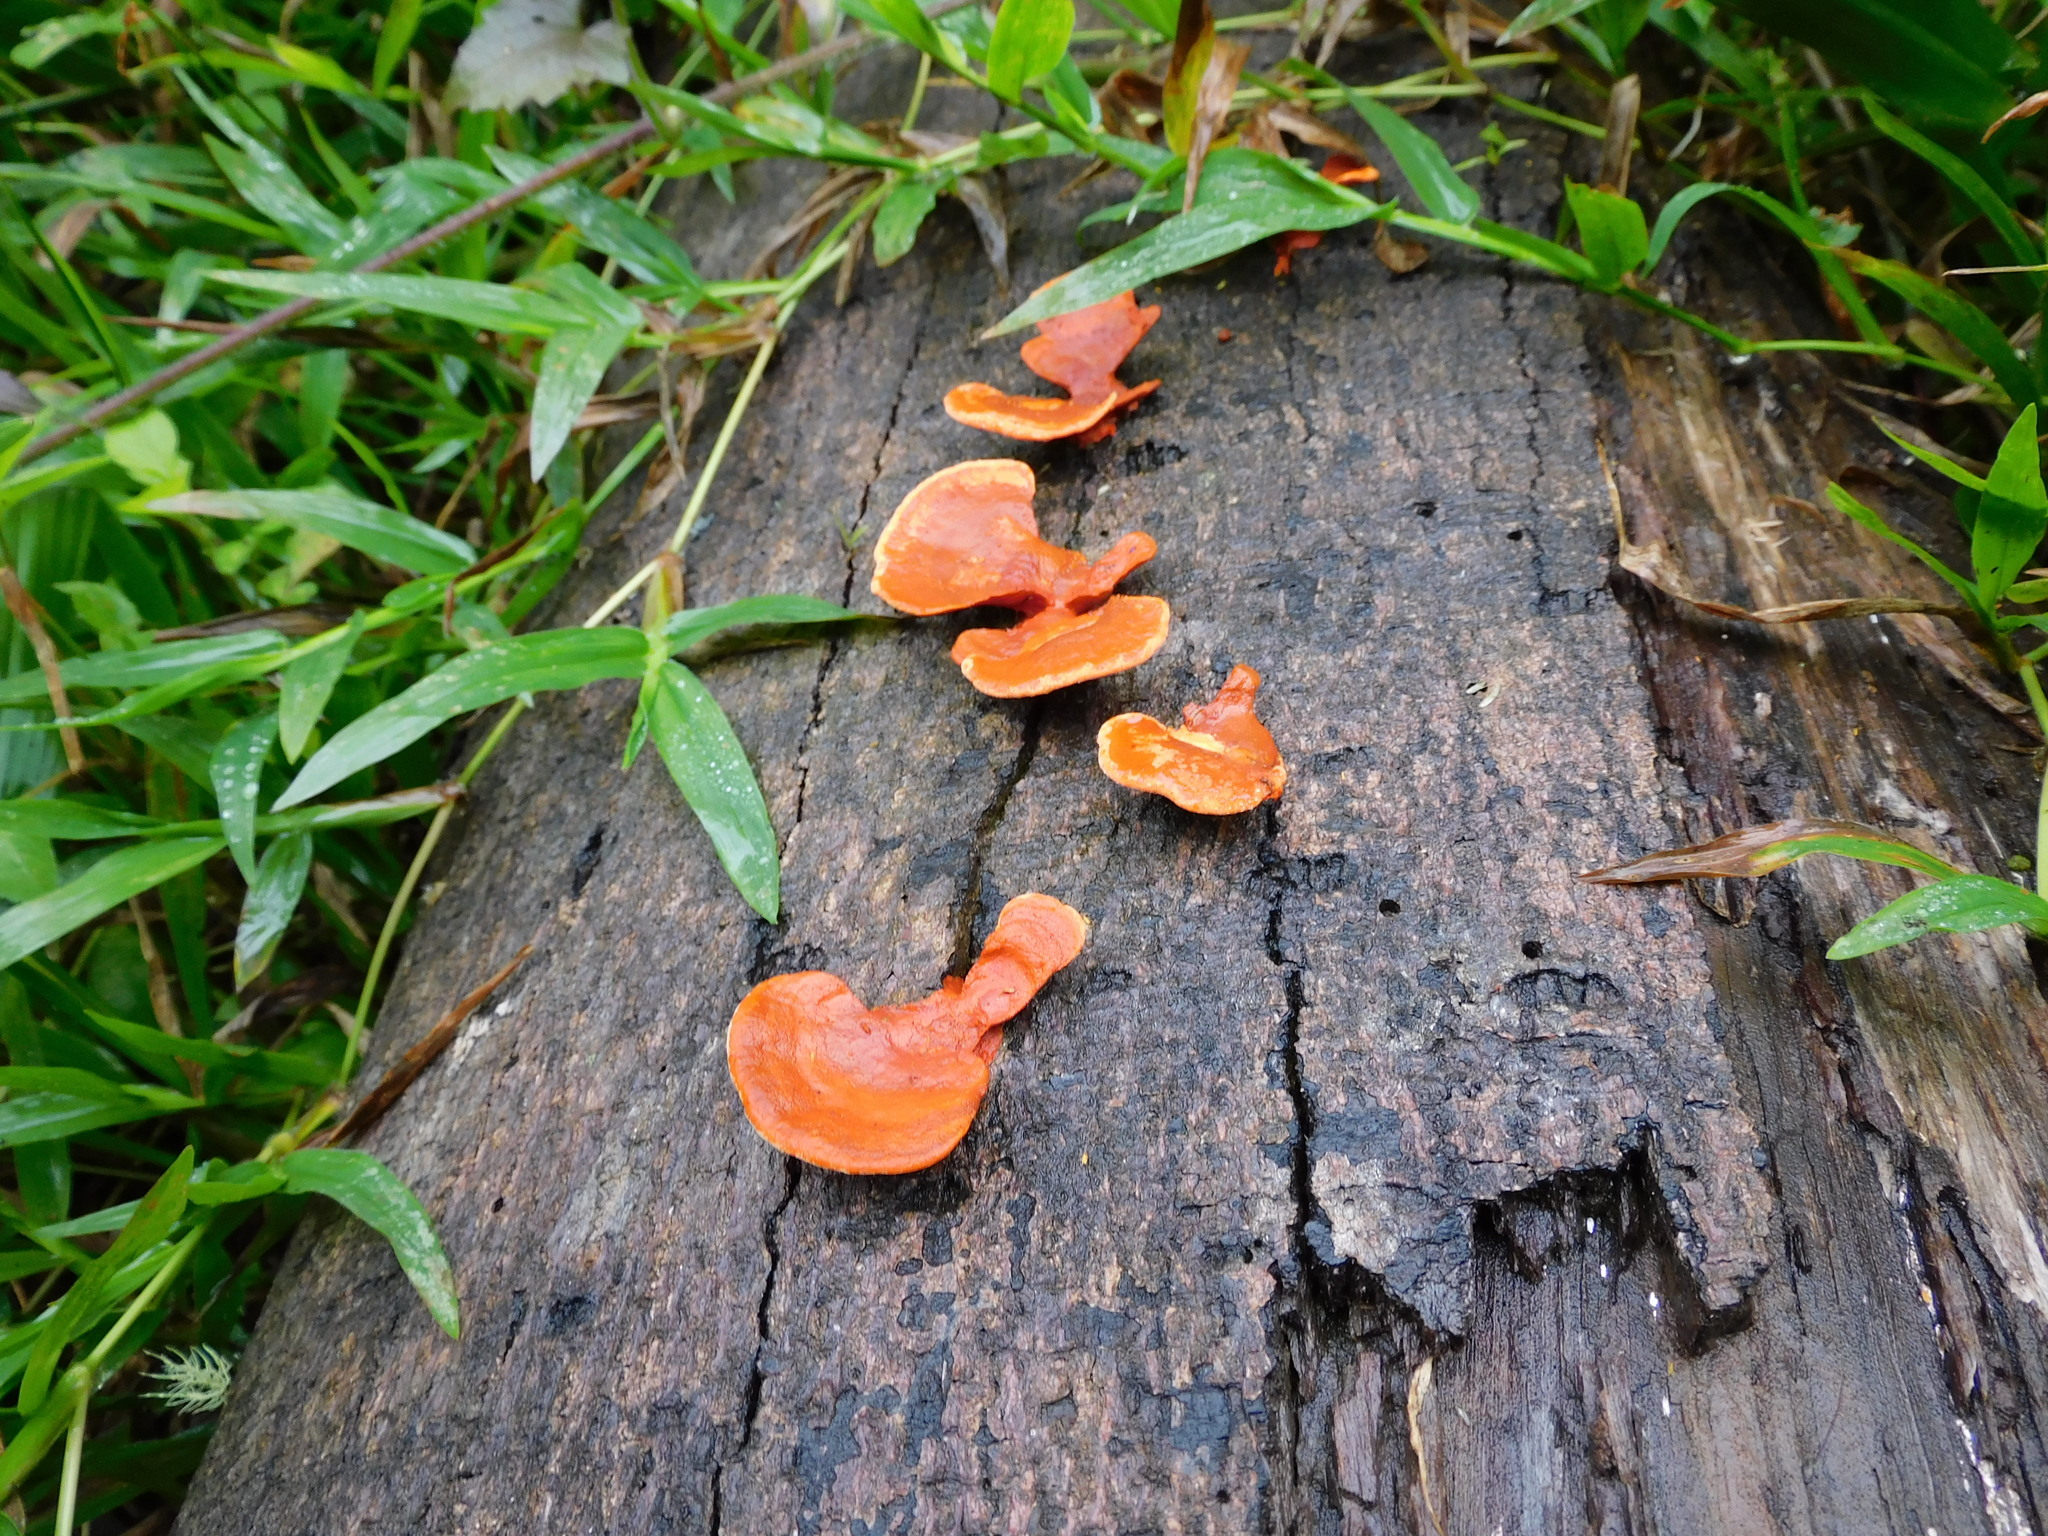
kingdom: Fungi
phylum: Basidiomycota
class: Agaricomycetes
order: Polyporales
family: Polyporaceae
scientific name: Polyporaceae
